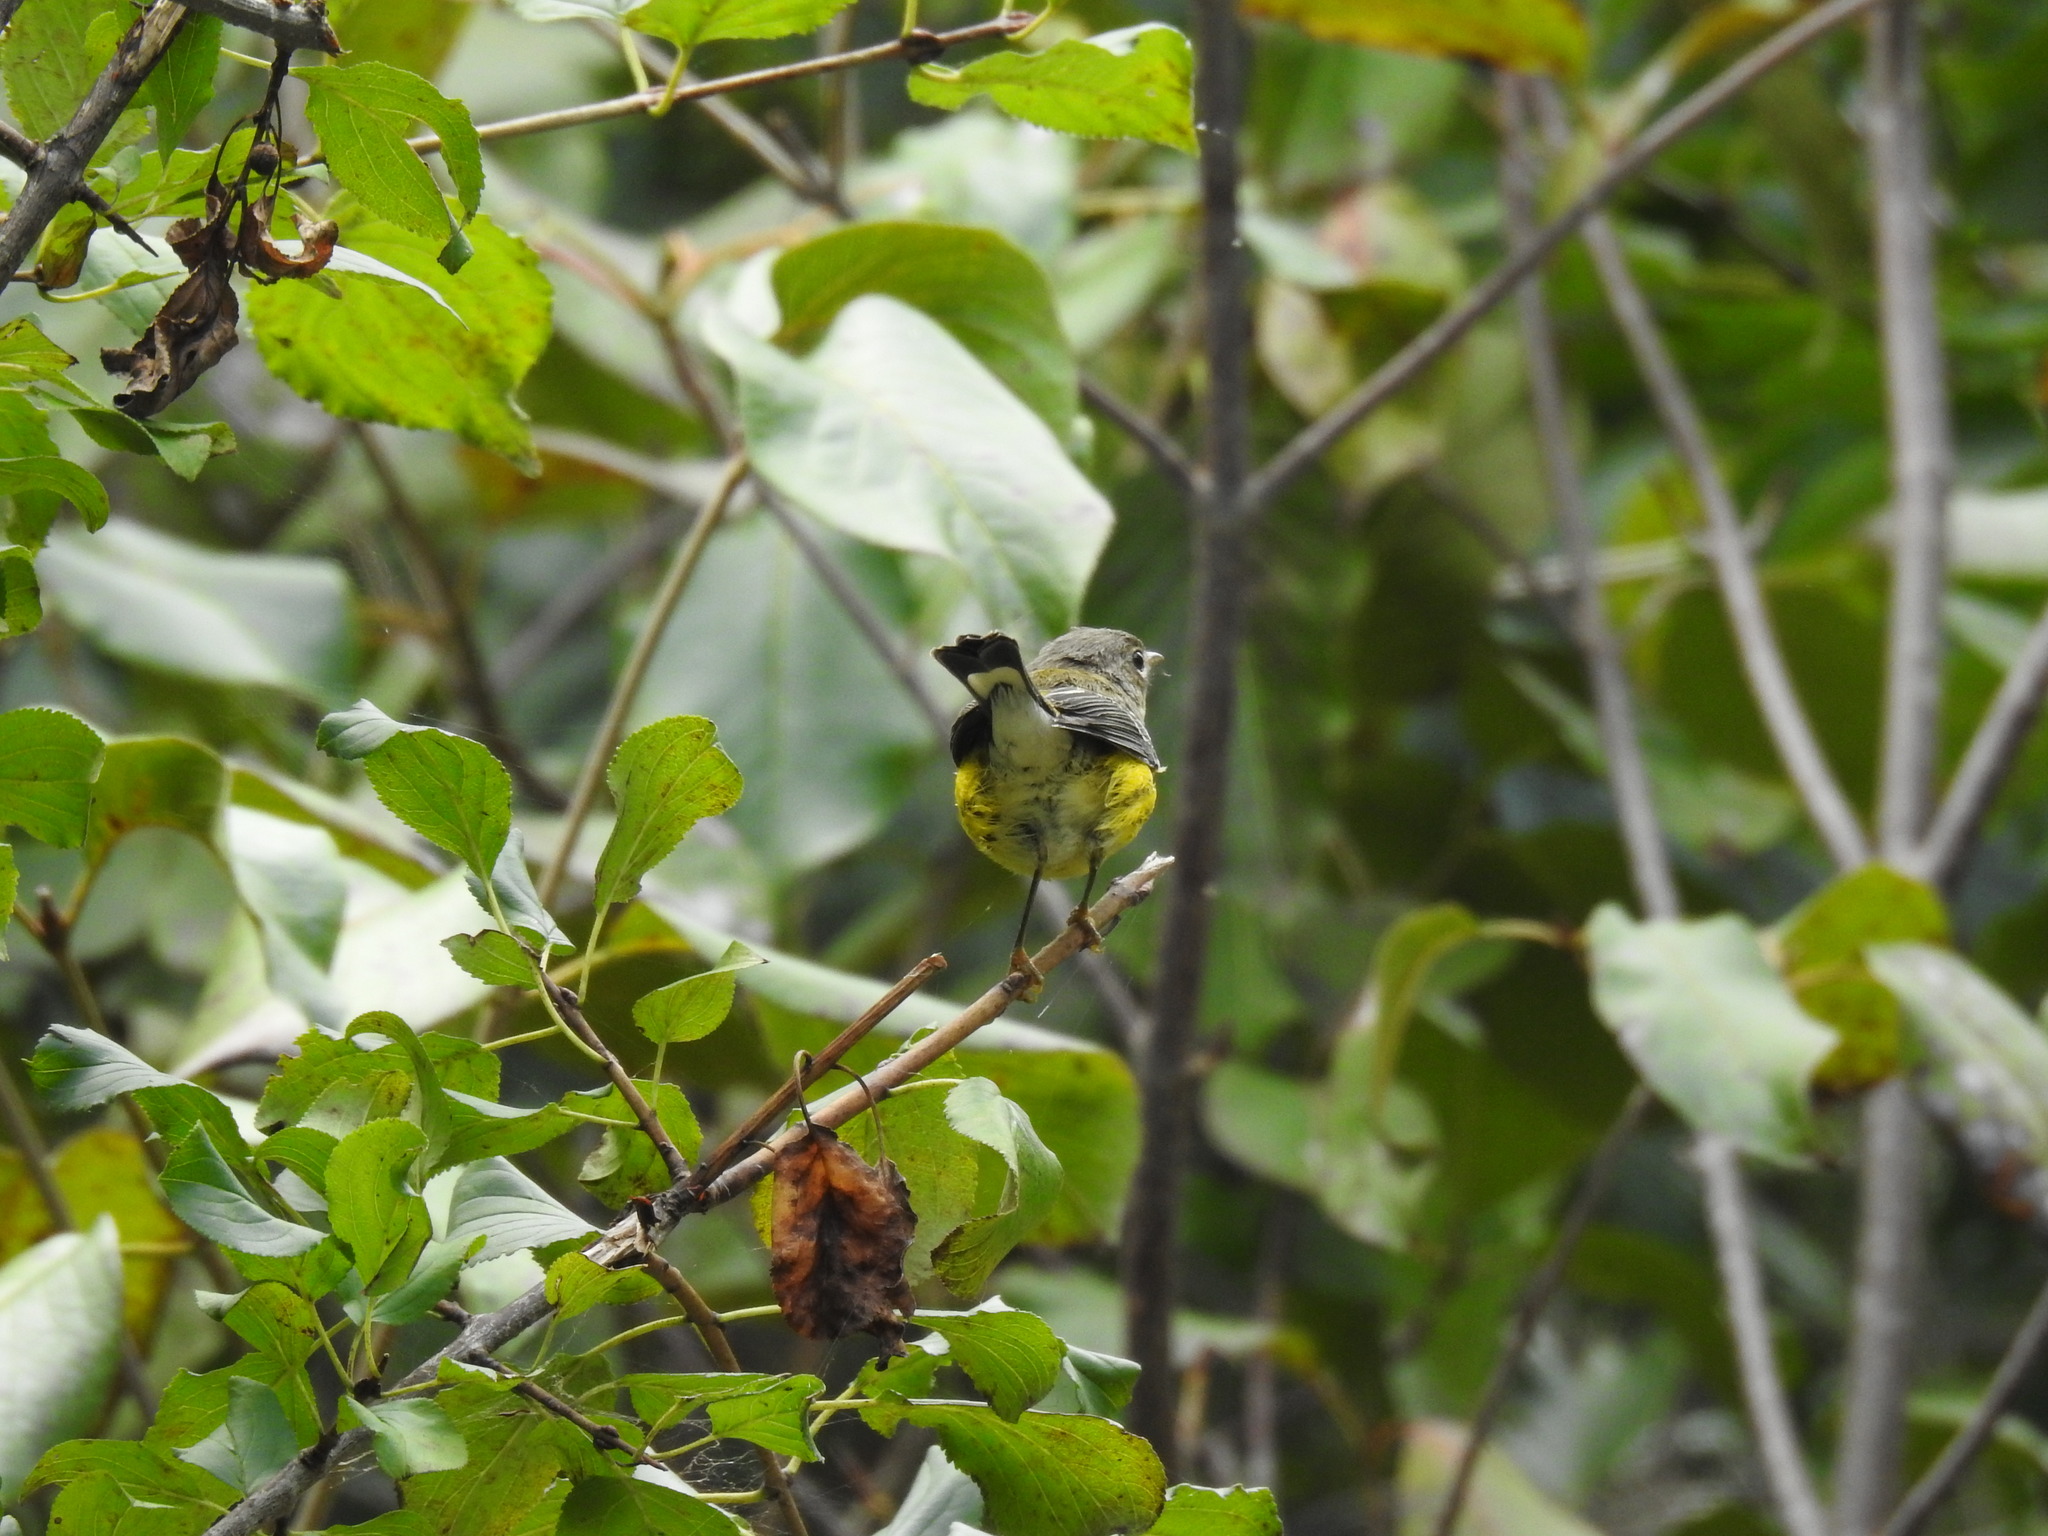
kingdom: Animalia
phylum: Chordata
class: Aves
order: Passeriformes
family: Parulidae
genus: Setophaga
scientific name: Setophaga magnolia
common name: Magnolia warbler
